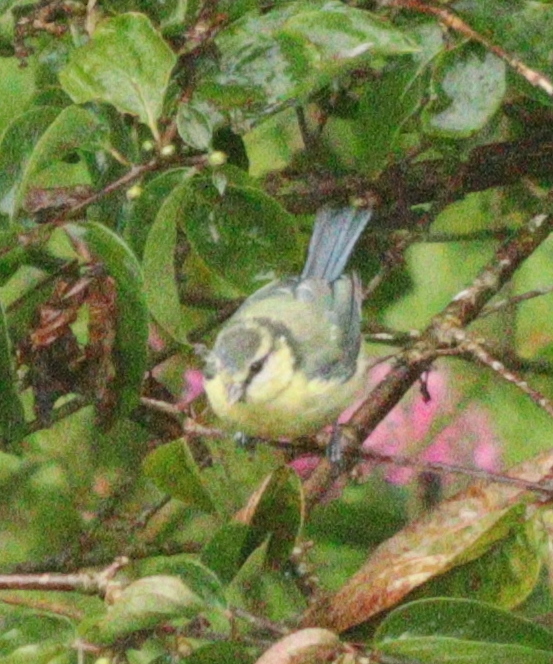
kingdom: Animalia
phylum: Chordata
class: Aves
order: Passeriformes
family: Paridae
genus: Cyanistes
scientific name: Cyanistes caeruleus
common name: Eurasian blue tit
